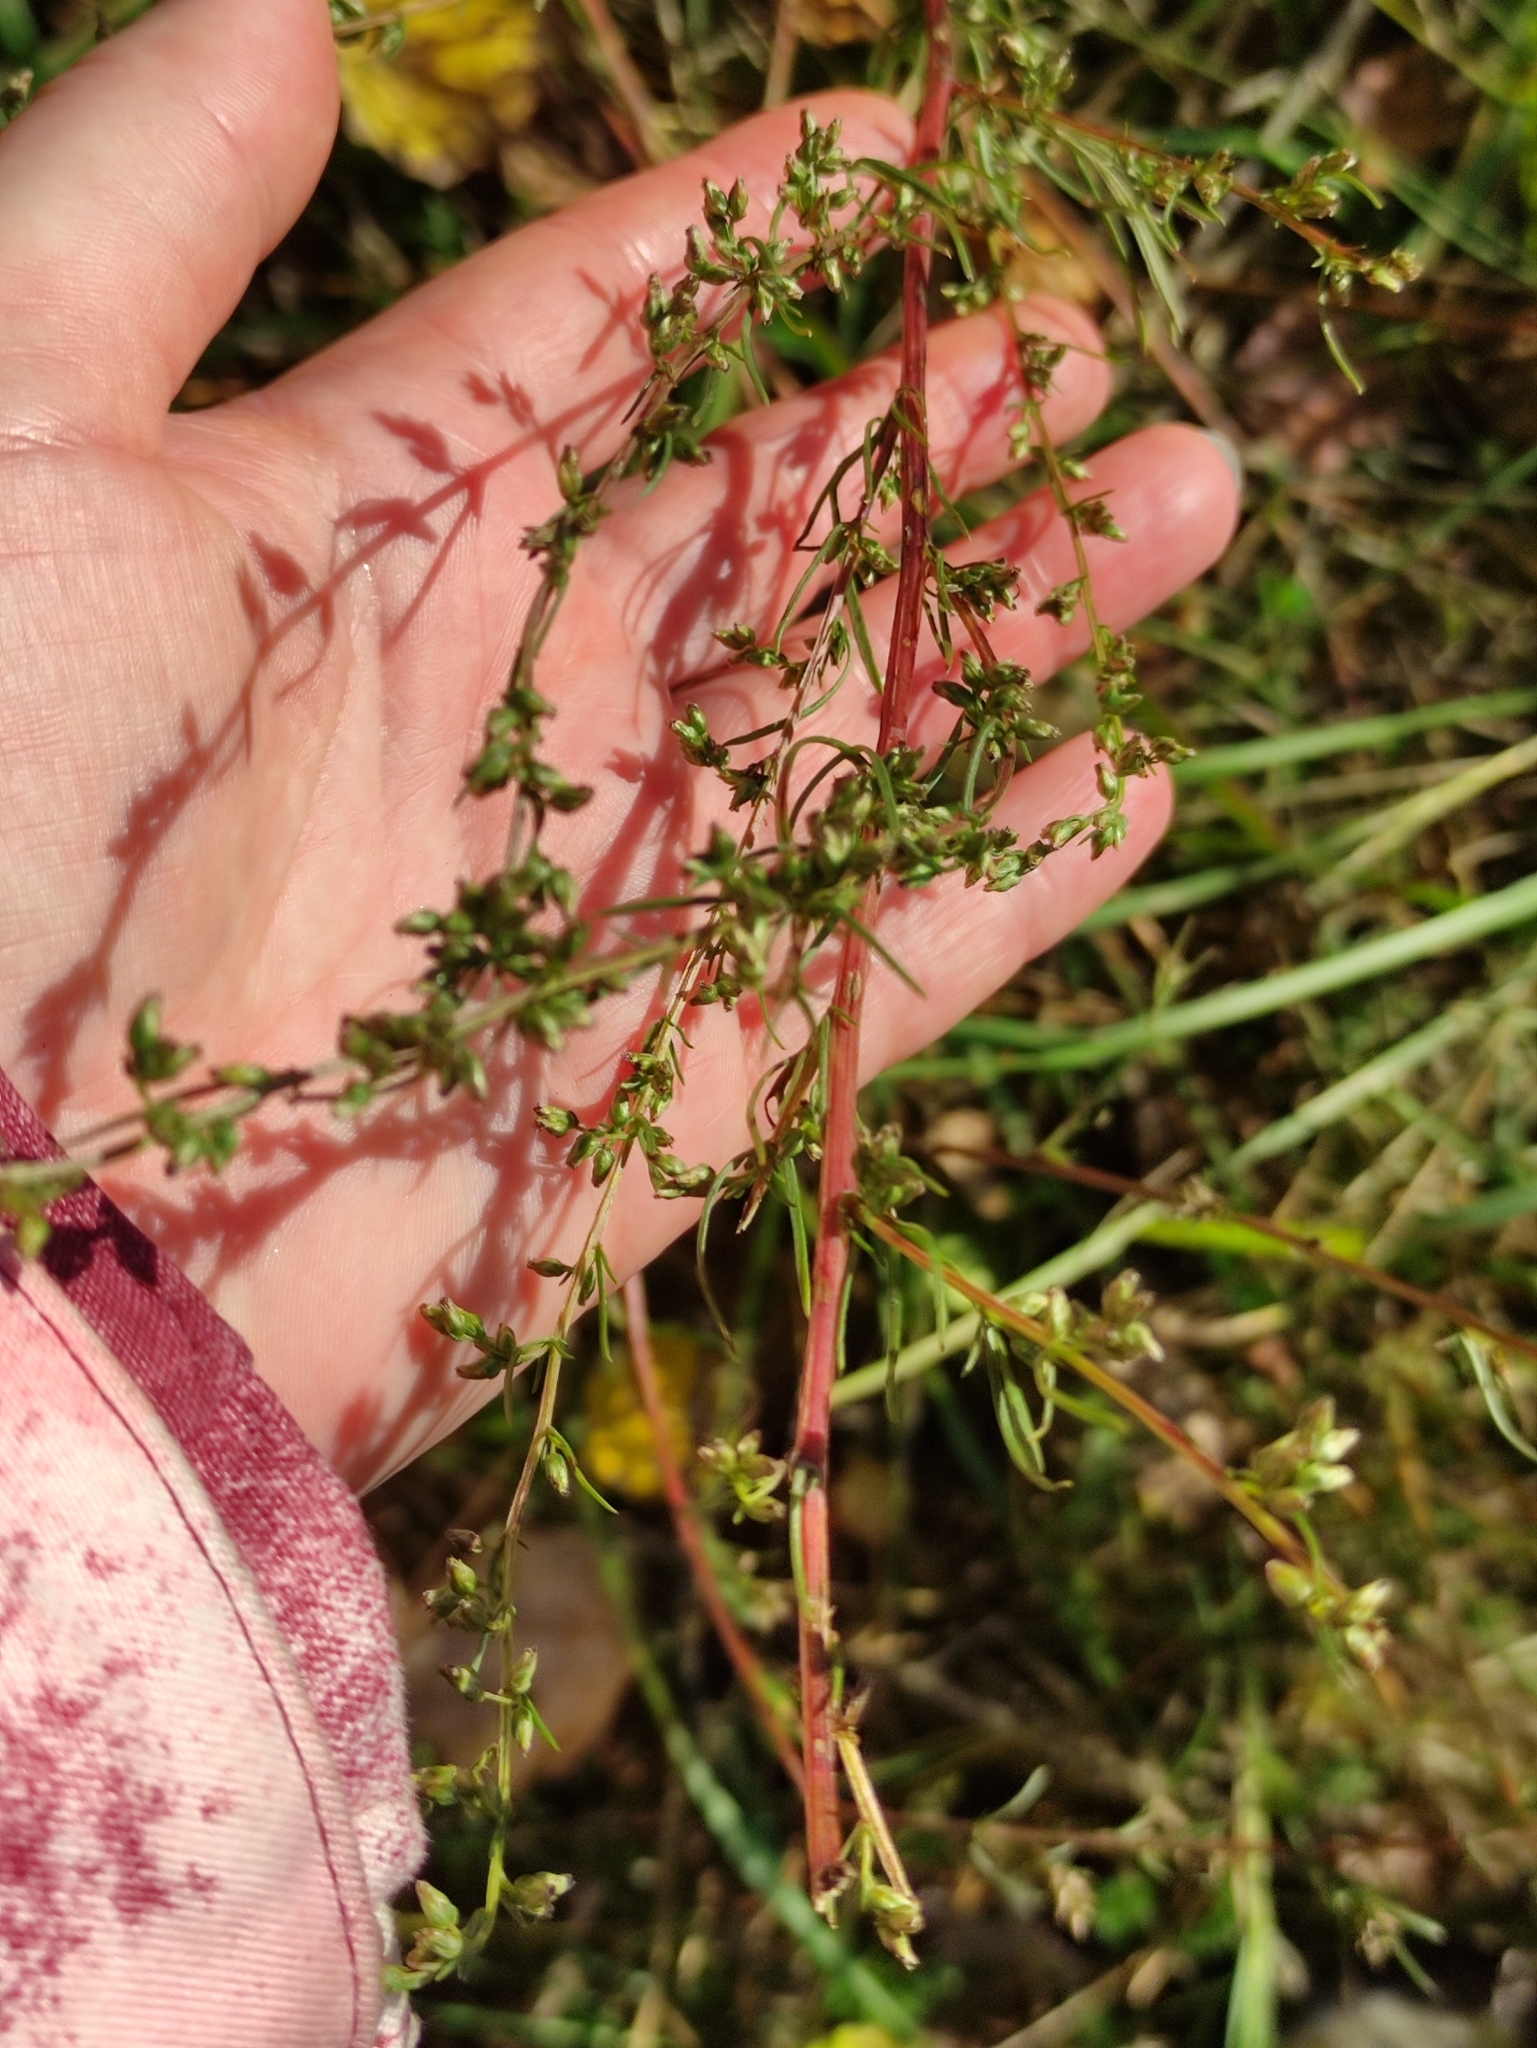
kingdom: Plantae
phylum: Tracheophyta
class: Magnoliopsida
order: Asterales
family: Asteraceae
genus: Artemisia
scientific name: Artemisia campestris
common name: Field wormwood
